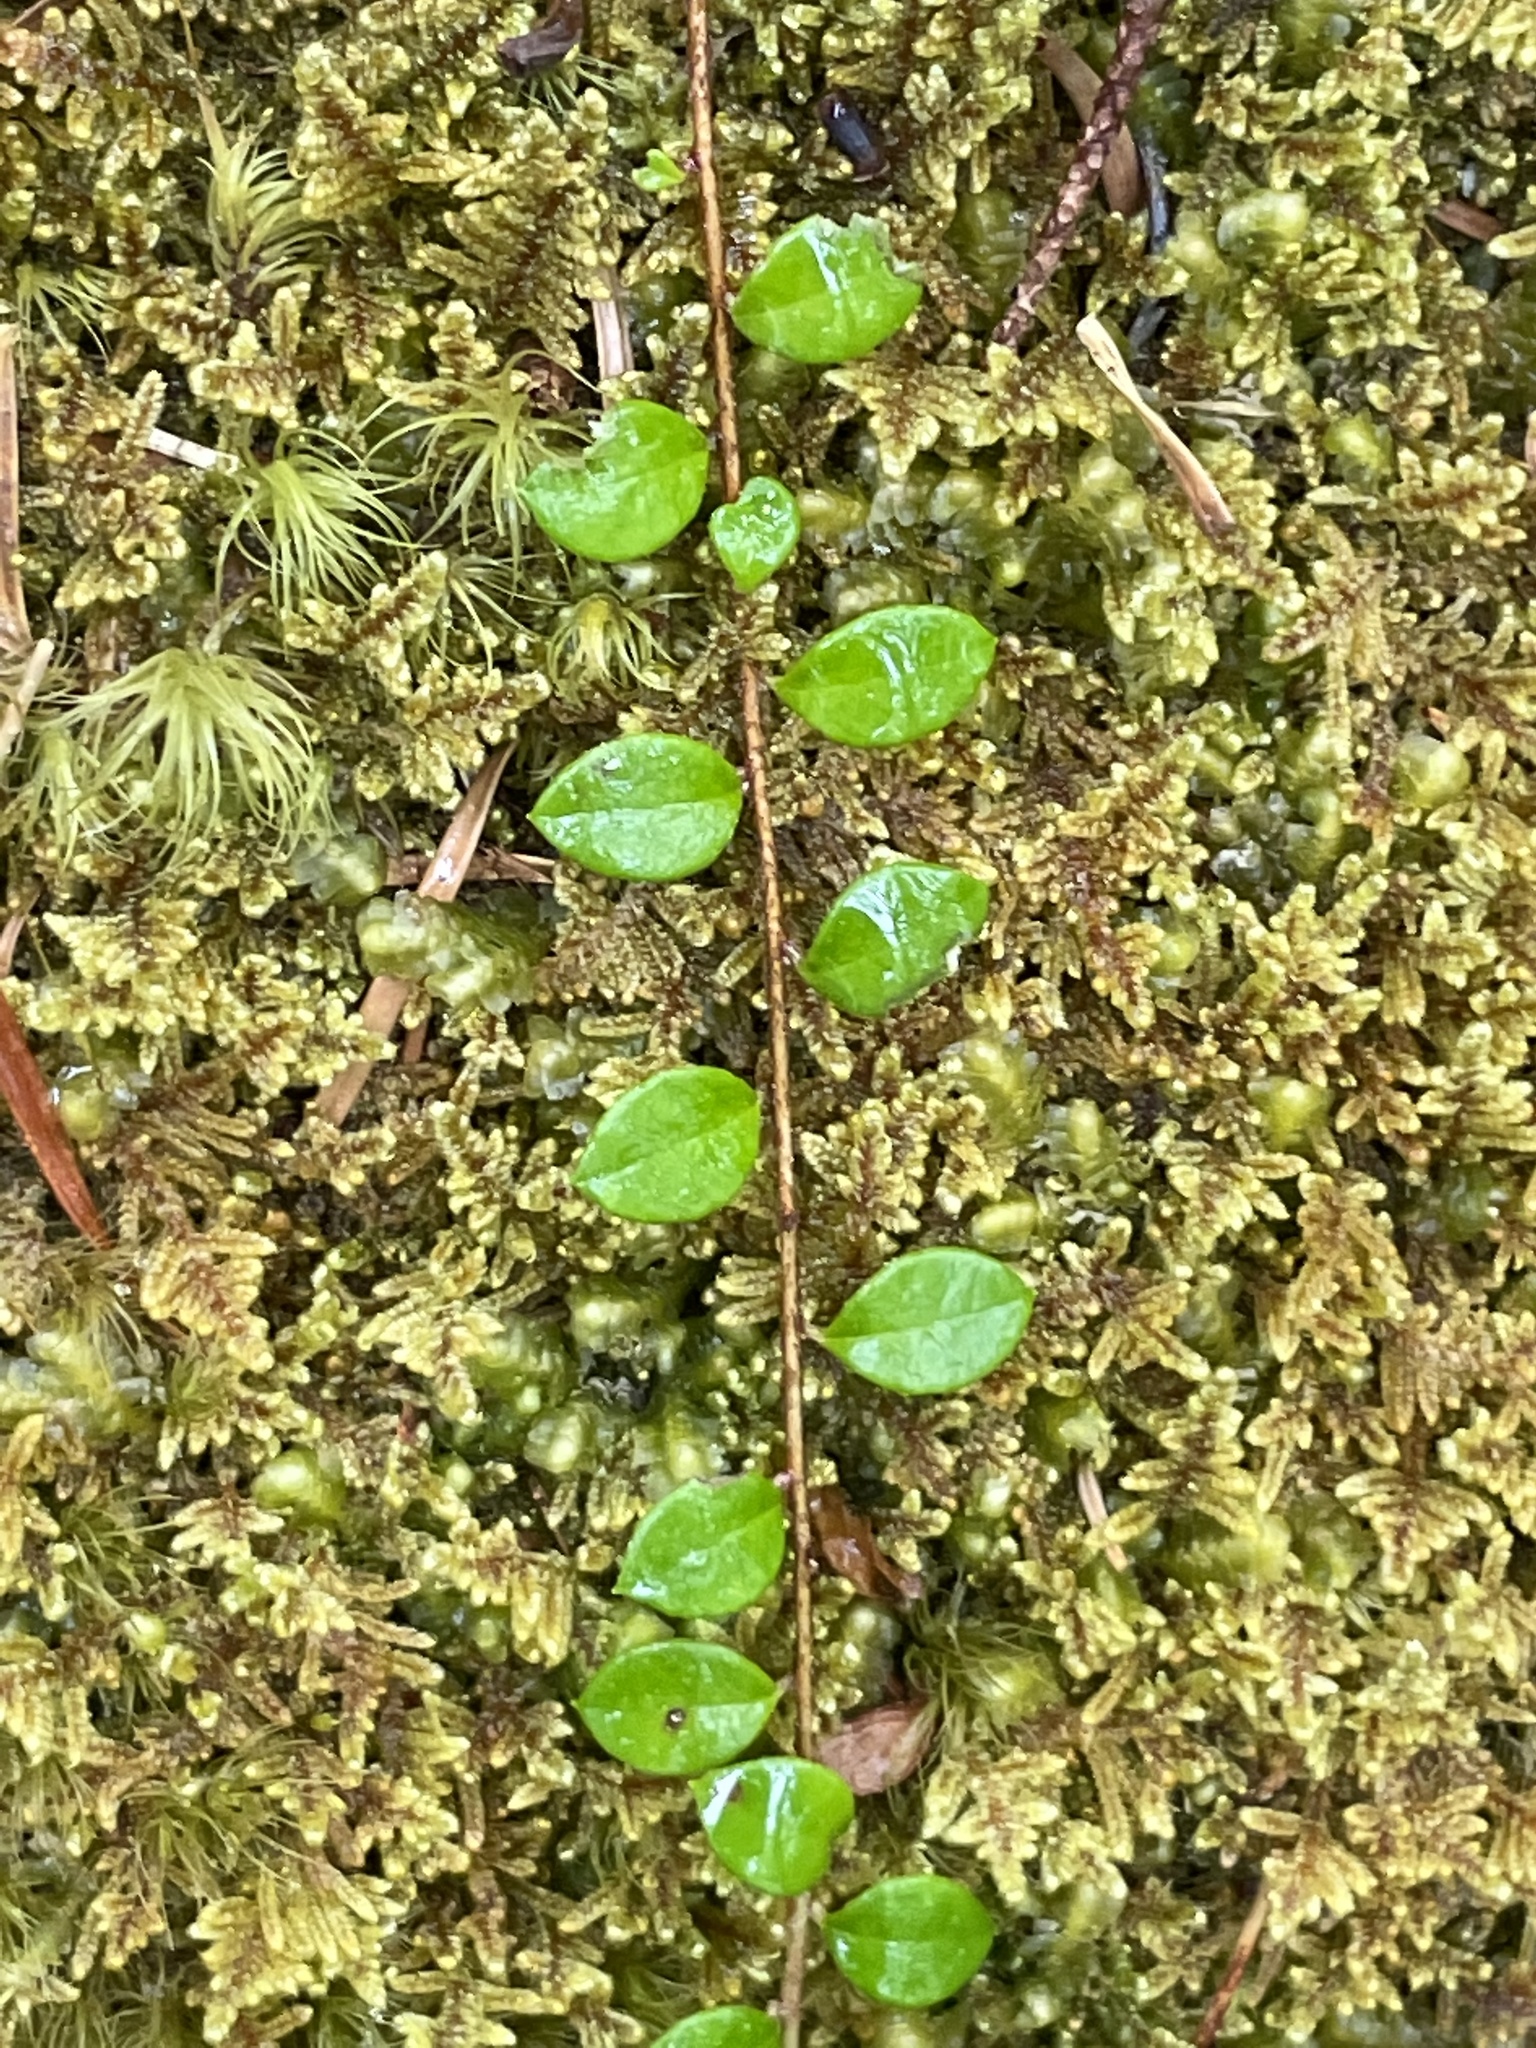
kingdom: Plantae
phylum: Tracheophyta
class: Magnoliopsida
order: Ericales
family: Ericaceae
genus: Gaultheria
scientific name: Gaultheria hispidula
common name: Cancer wintergreen
